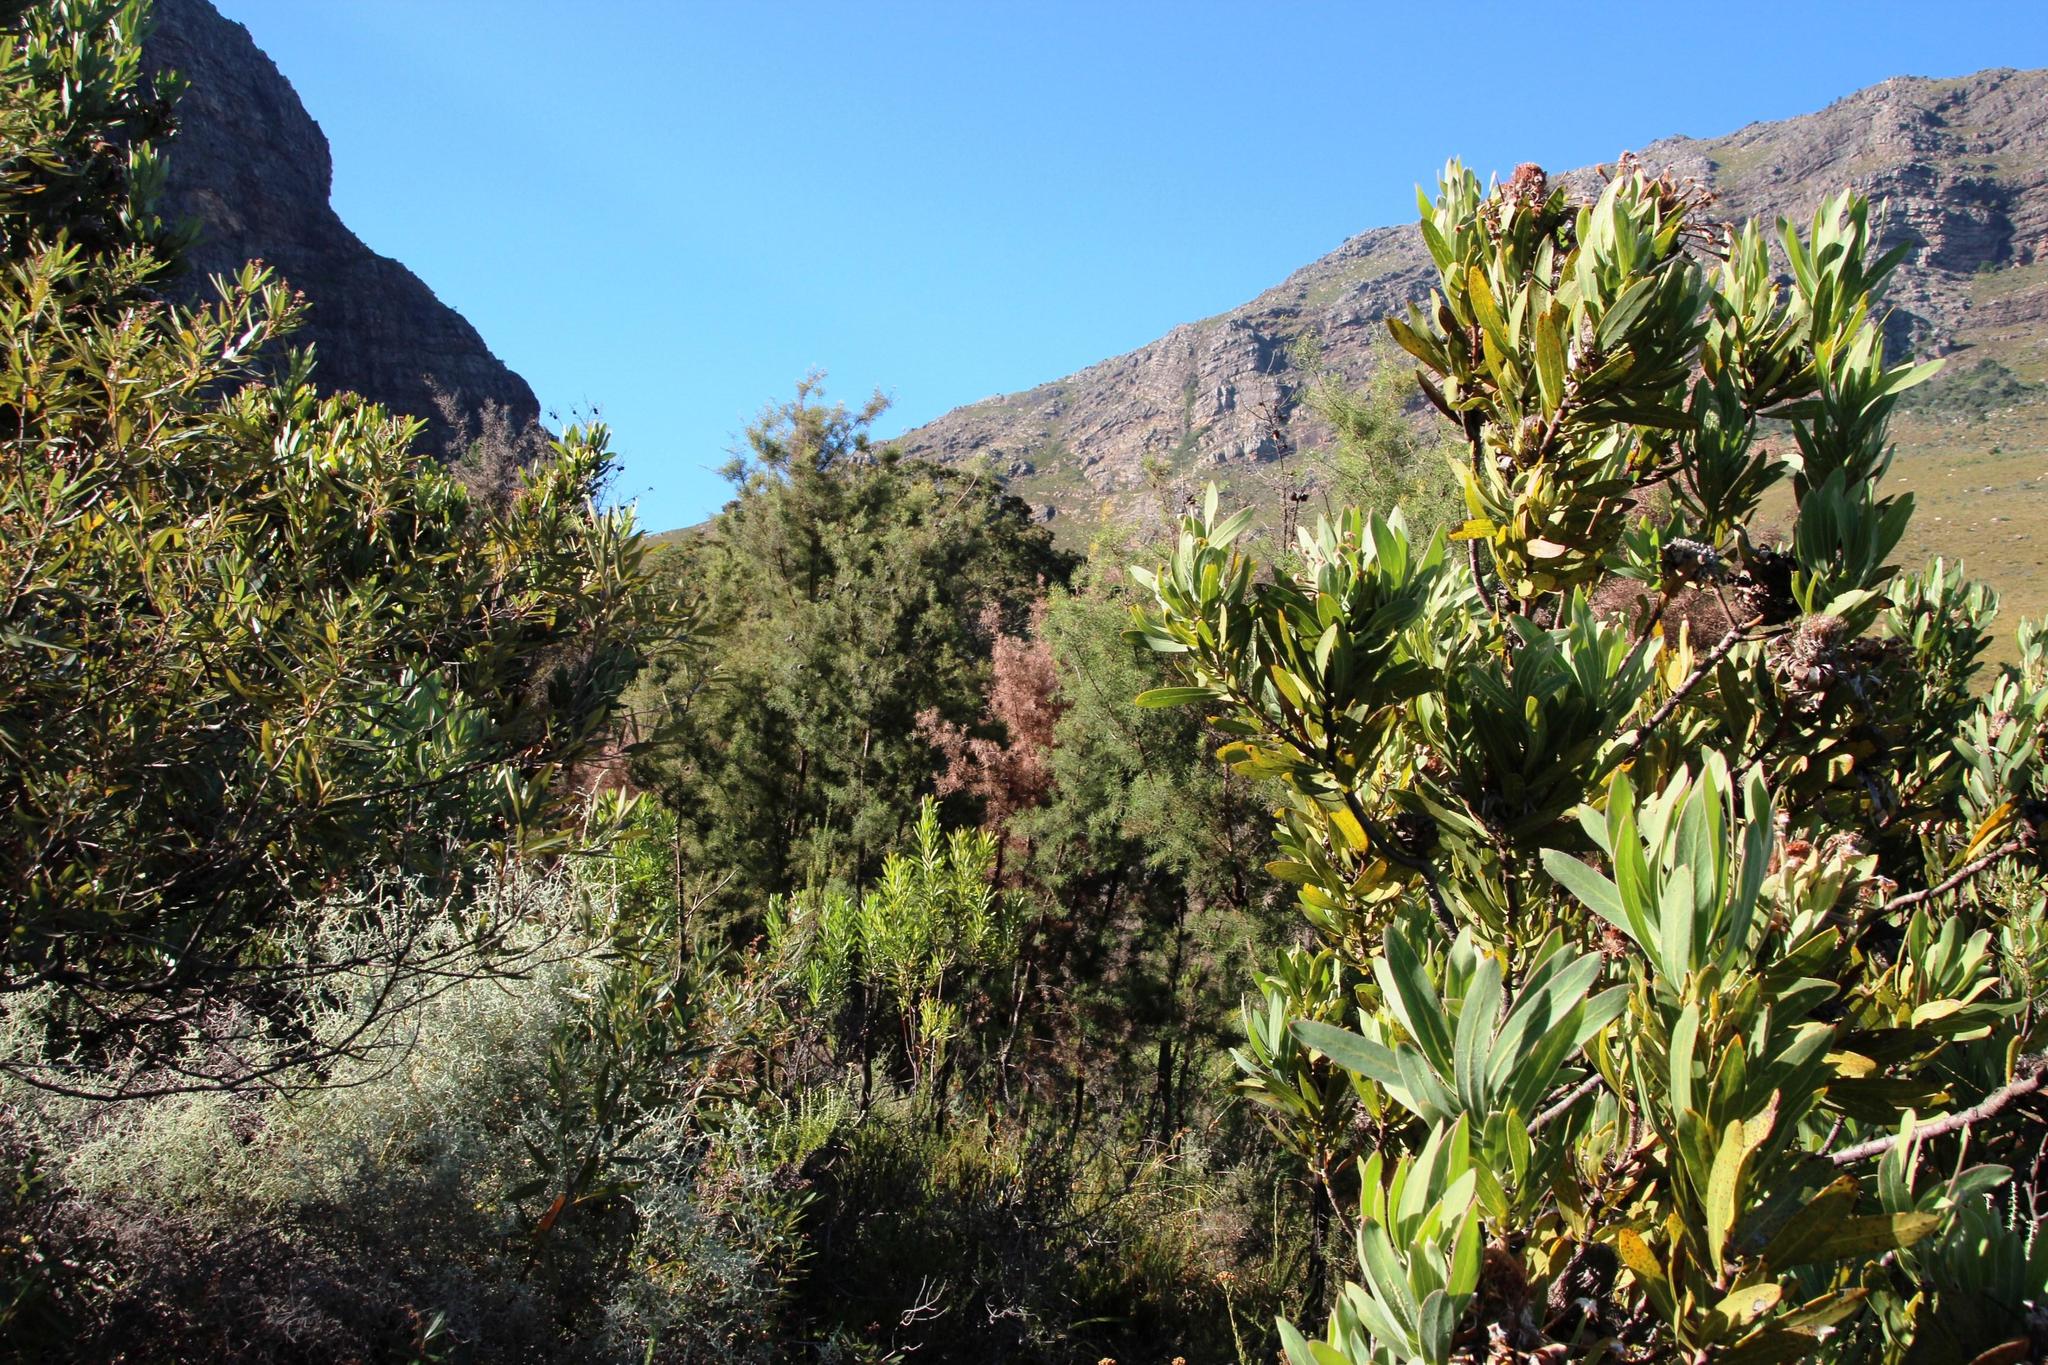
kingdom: Plantae
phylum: Tracheophyta
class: Magnoliopsida
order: Proteales
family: Proteaceae
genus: Hakea
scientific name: Hakea sericea
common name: Needle bush
